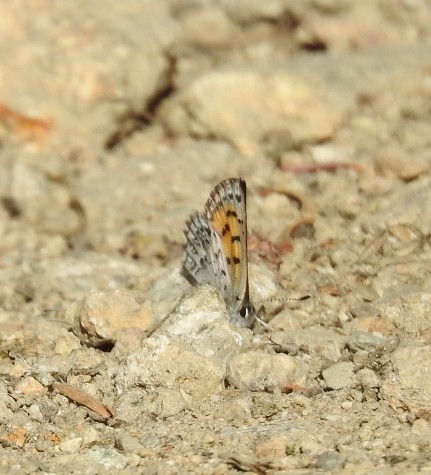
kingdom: Animalia
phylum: Arthropoda
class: Insecta
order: Lepidoptera
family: Lycaenidae
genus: Tharsalea
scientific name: Tharsalea mariposa
